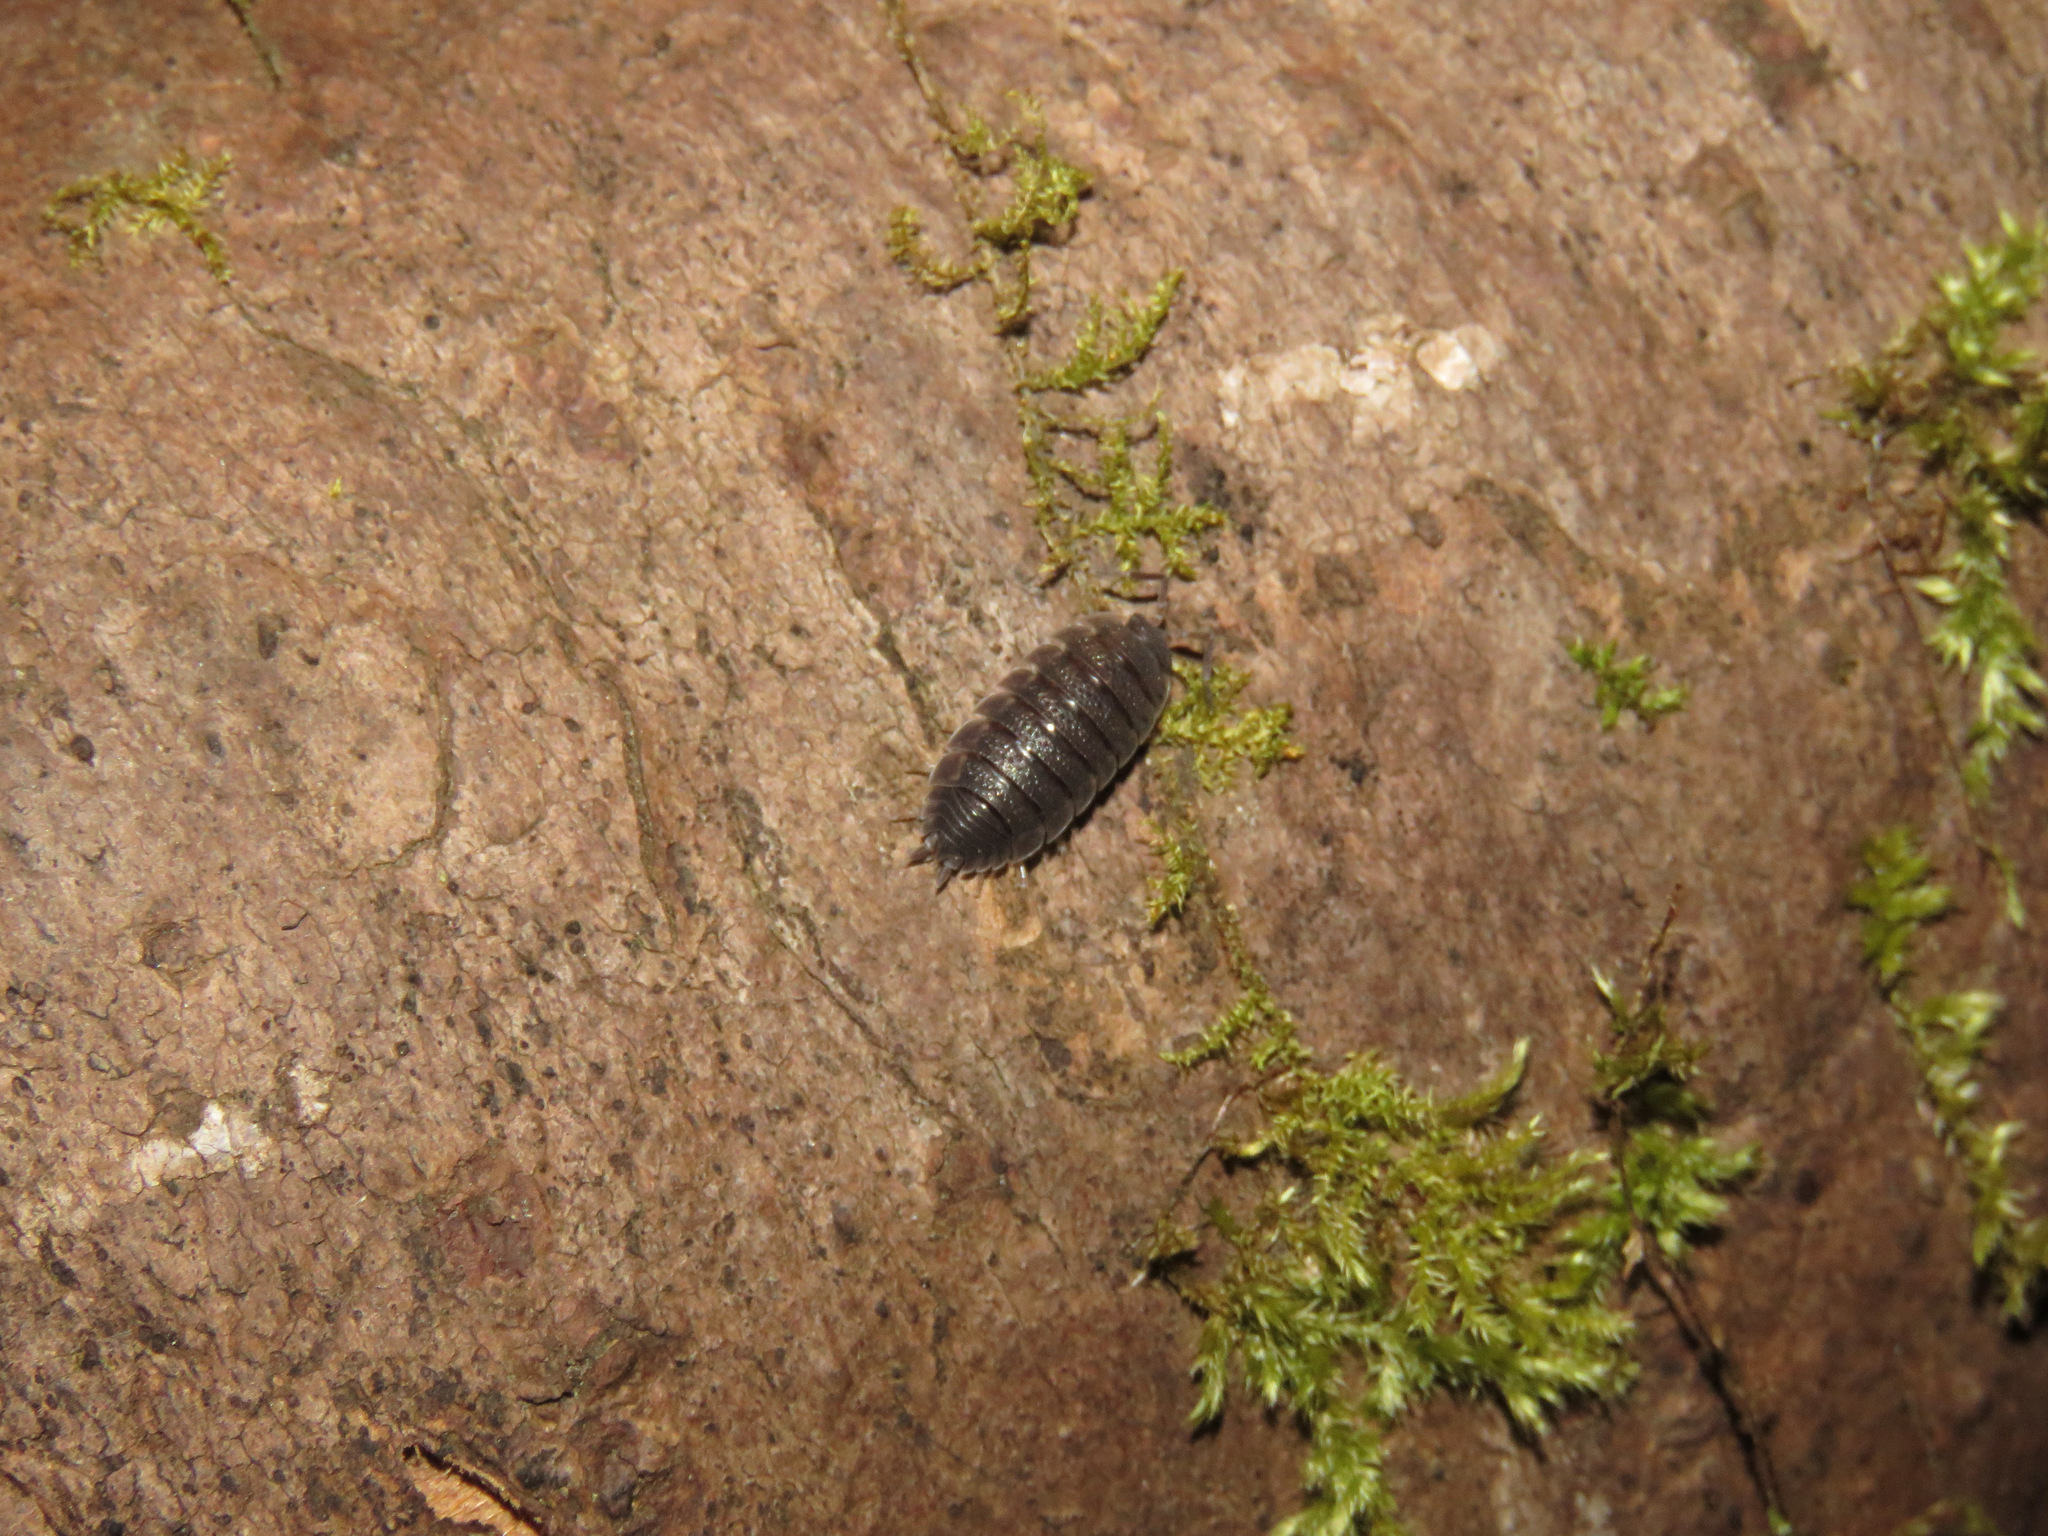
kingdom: Animalia
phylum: Arthropoda
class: Malacostraca
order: Isopoda
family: Porcellionidae
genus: Porcellio
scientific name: Porcellio scaber
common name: Common rough woodlouse
